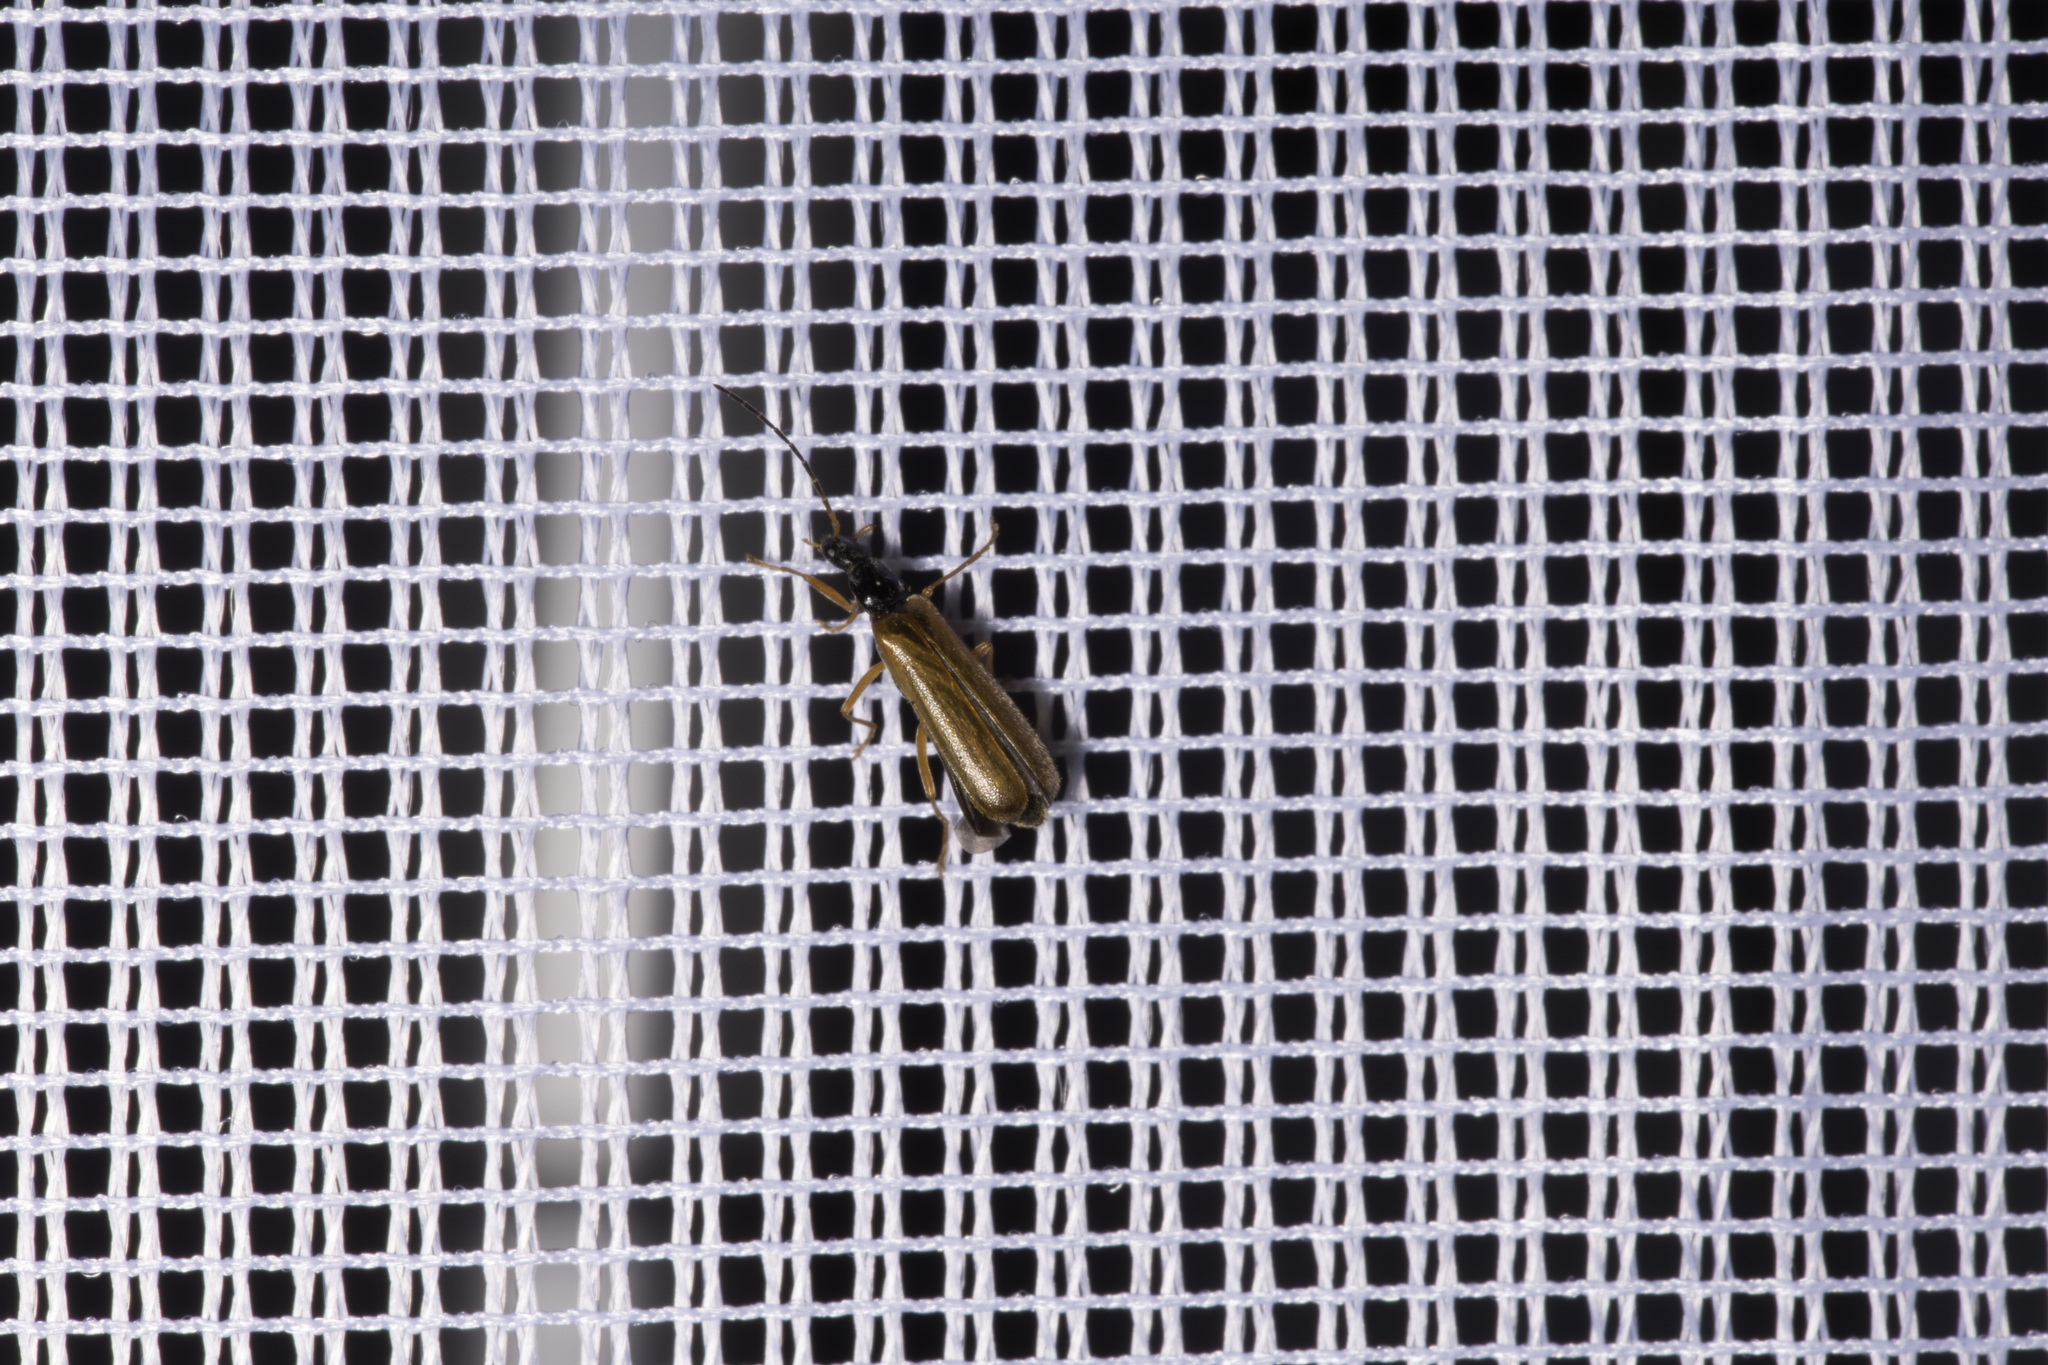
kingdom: Animalia
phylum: Arthropoda
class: Insecta
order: Coleoptera
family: Cantharidae
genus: Rhagonycha
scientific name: Rhagonycha lignosa
